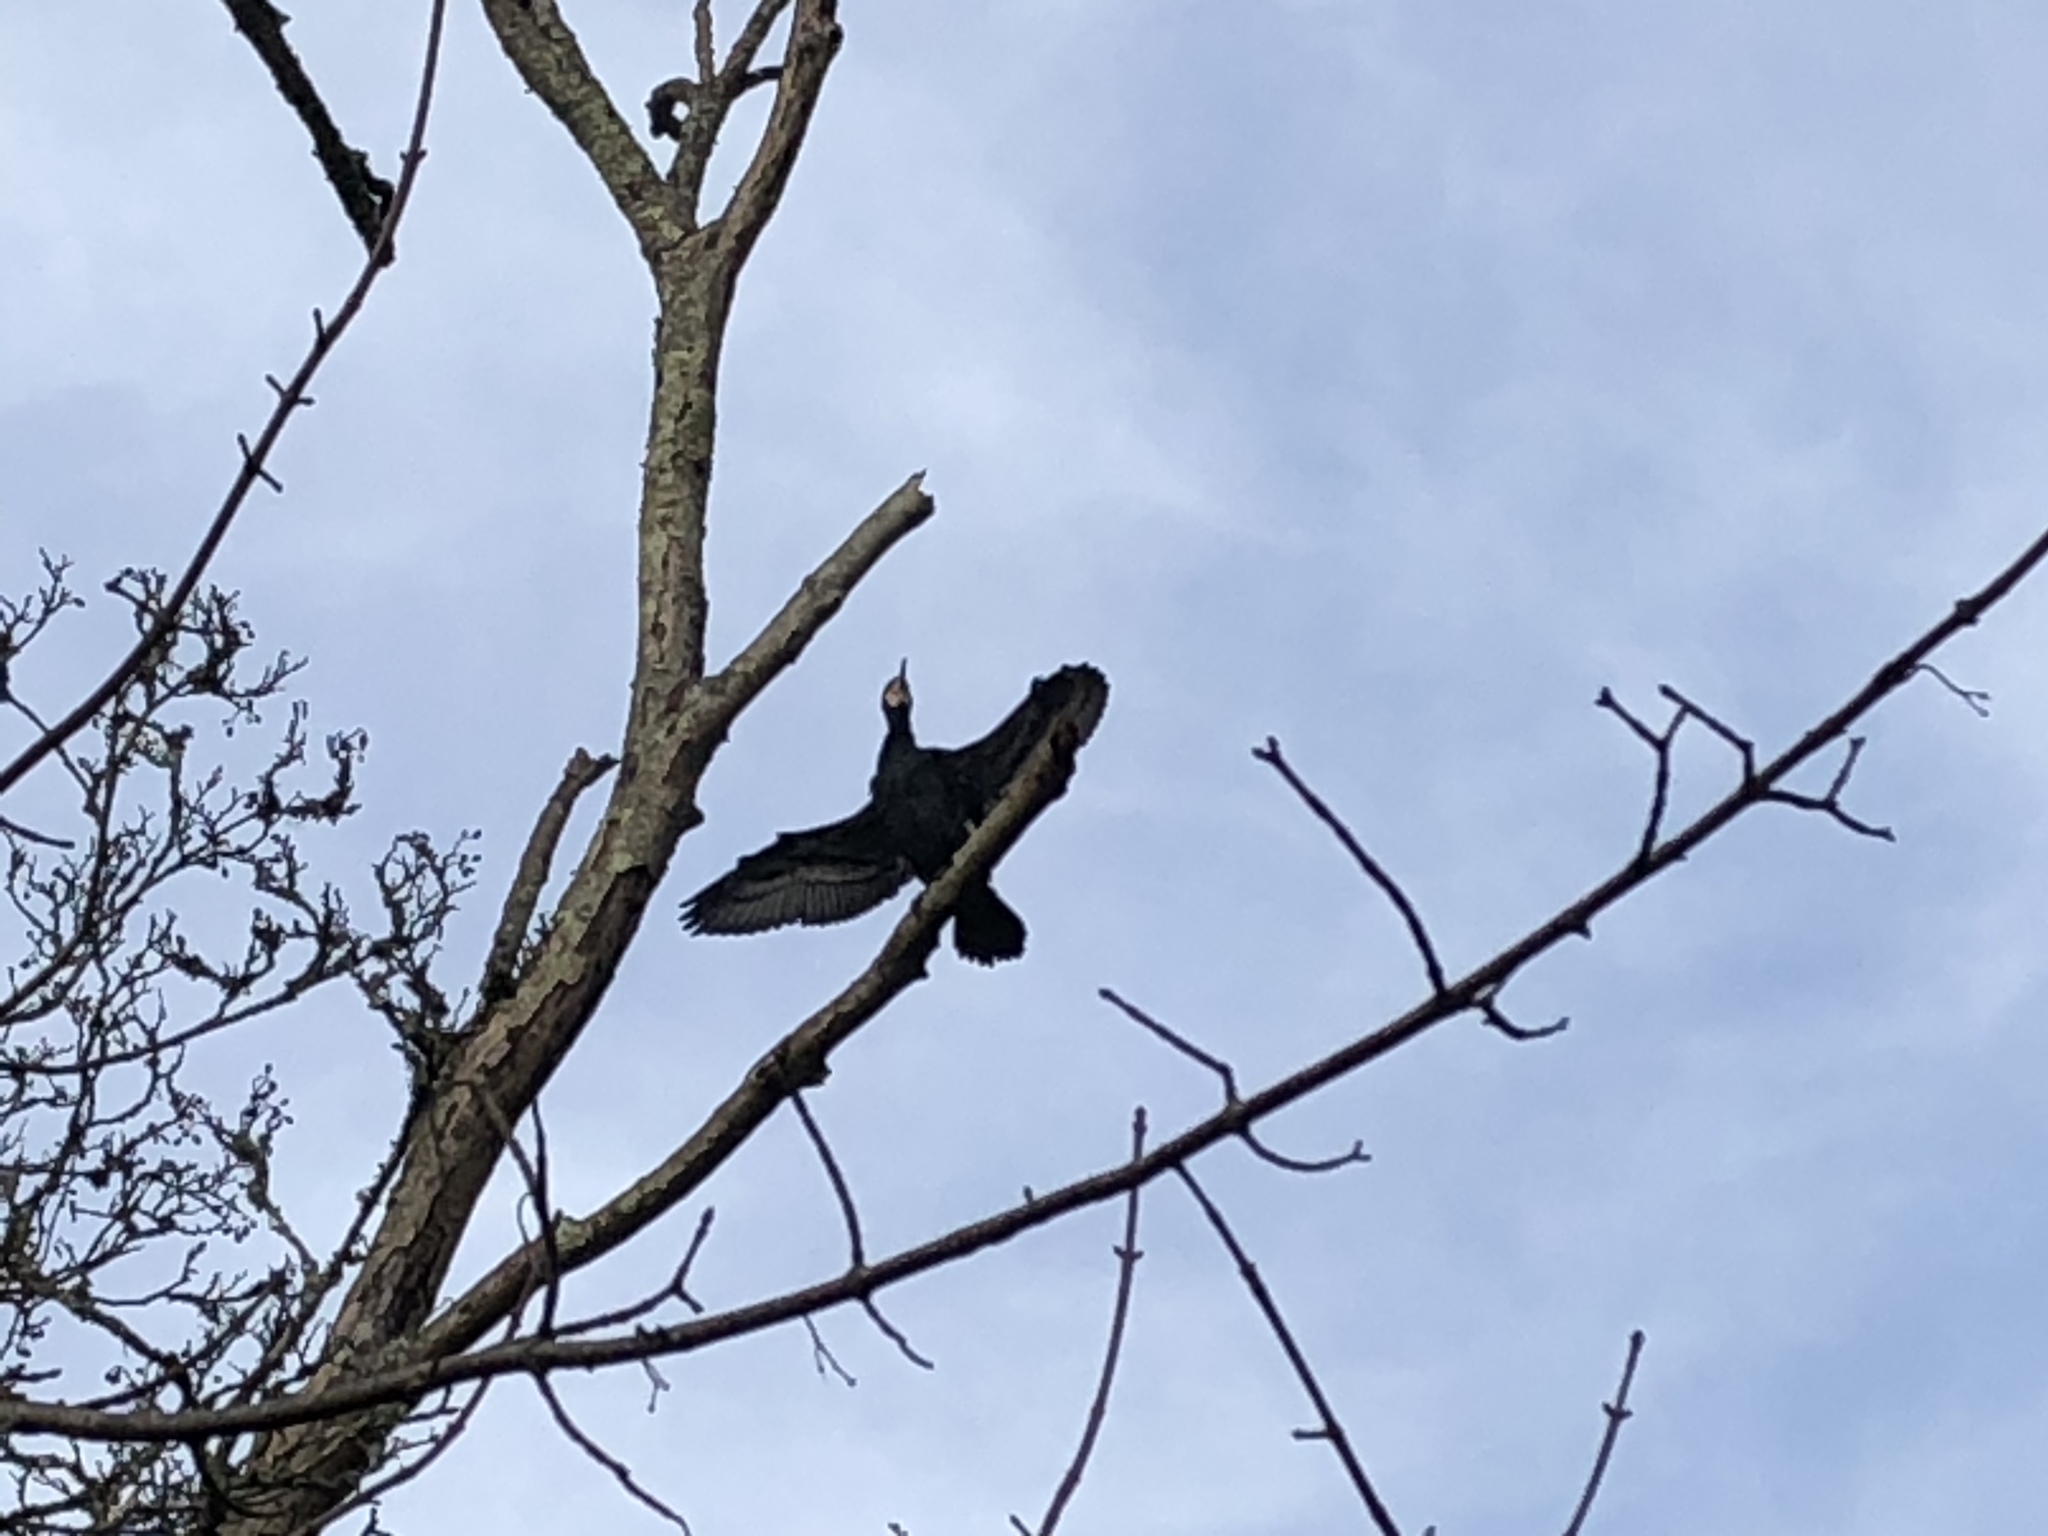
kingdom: Animalia
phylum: Chordata
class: Aves
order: Suliformes
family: Phalacrocoracidae
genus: Phalacrocorax
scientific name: Phalacrocorax carbo
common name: Great cormorant
